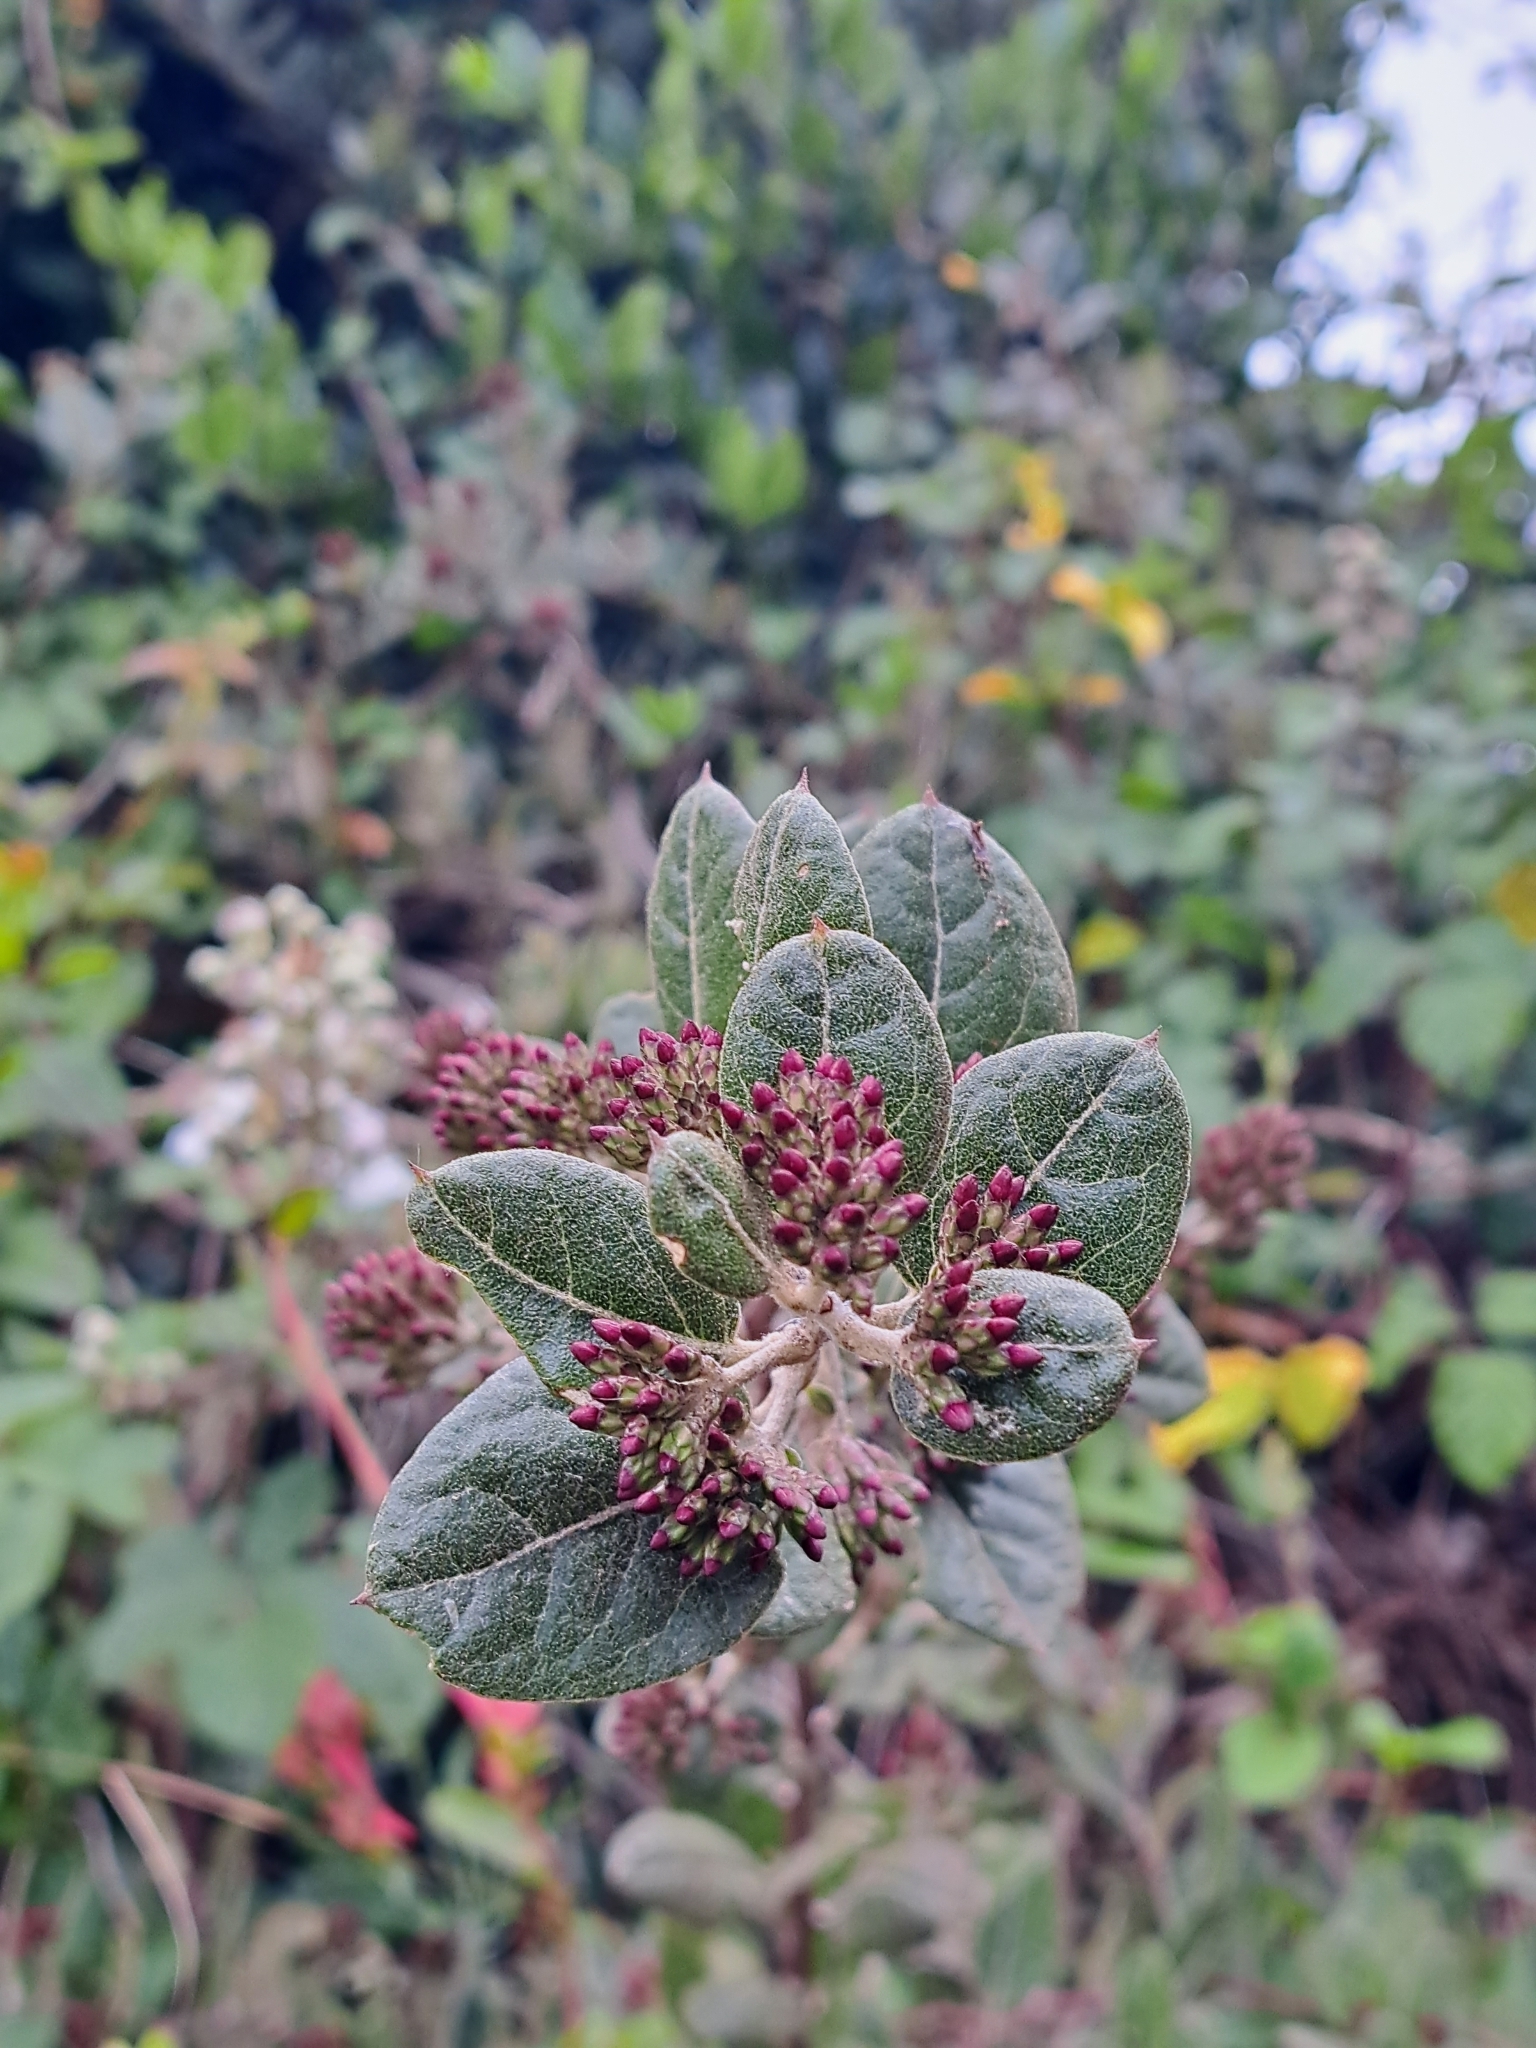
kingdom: Plantae
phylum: Tracheophyta
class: Magnoliopsida
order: Asterales
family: Asteraceae
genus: Proustia
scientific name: Proustia pyrifolia
